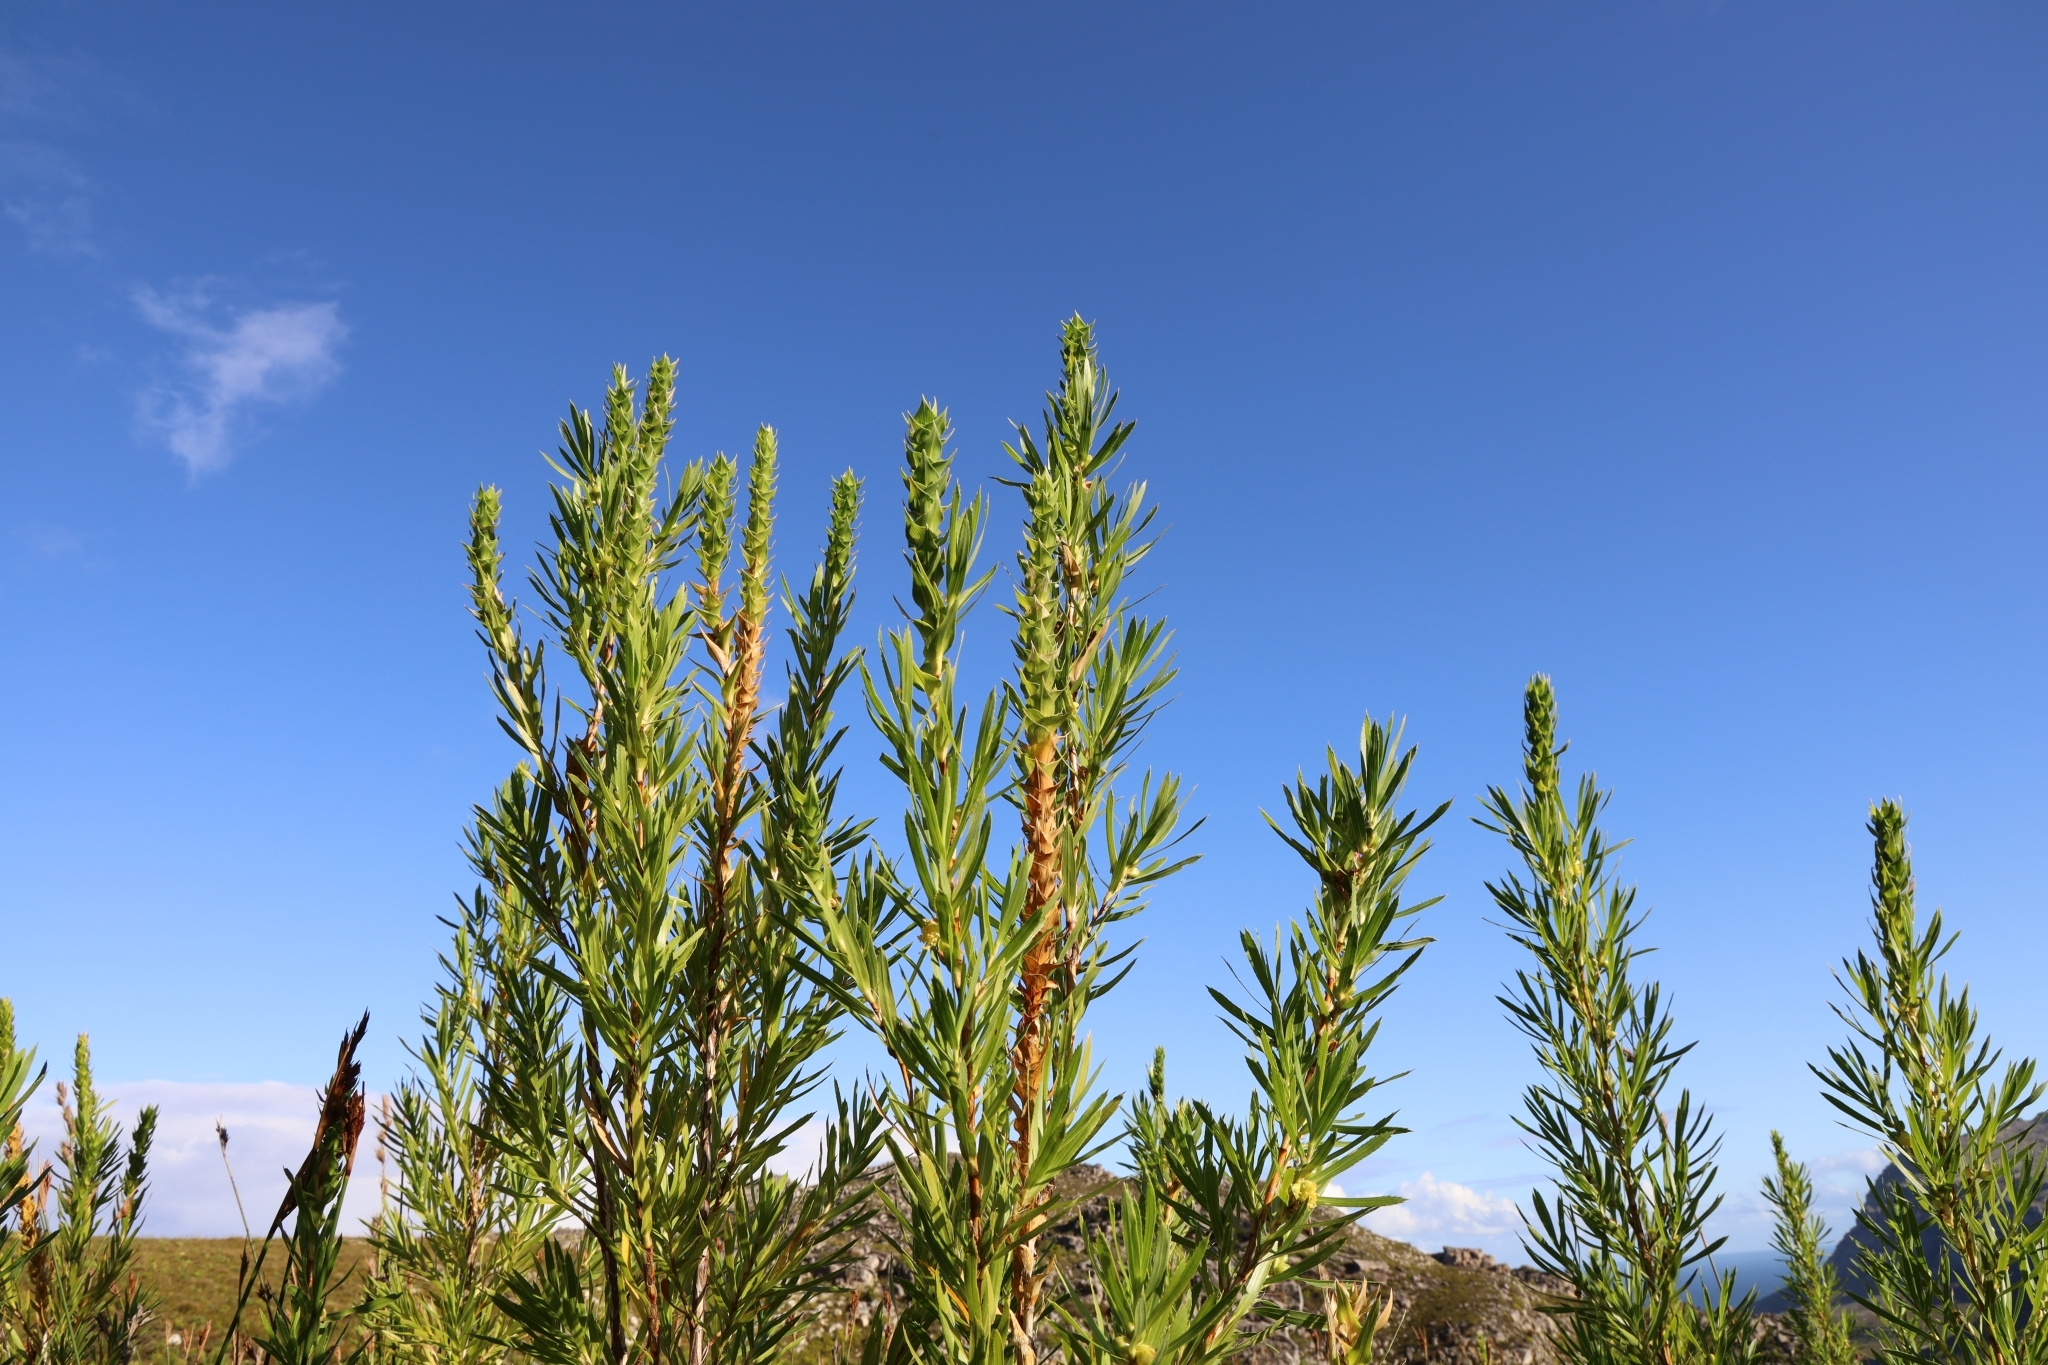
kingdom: Plantae
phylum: Tracheophyta
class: Magnoliopsida
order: Rosales
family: Rosaceae
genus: Cliffortia
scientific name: Cliffortia heterophylla
